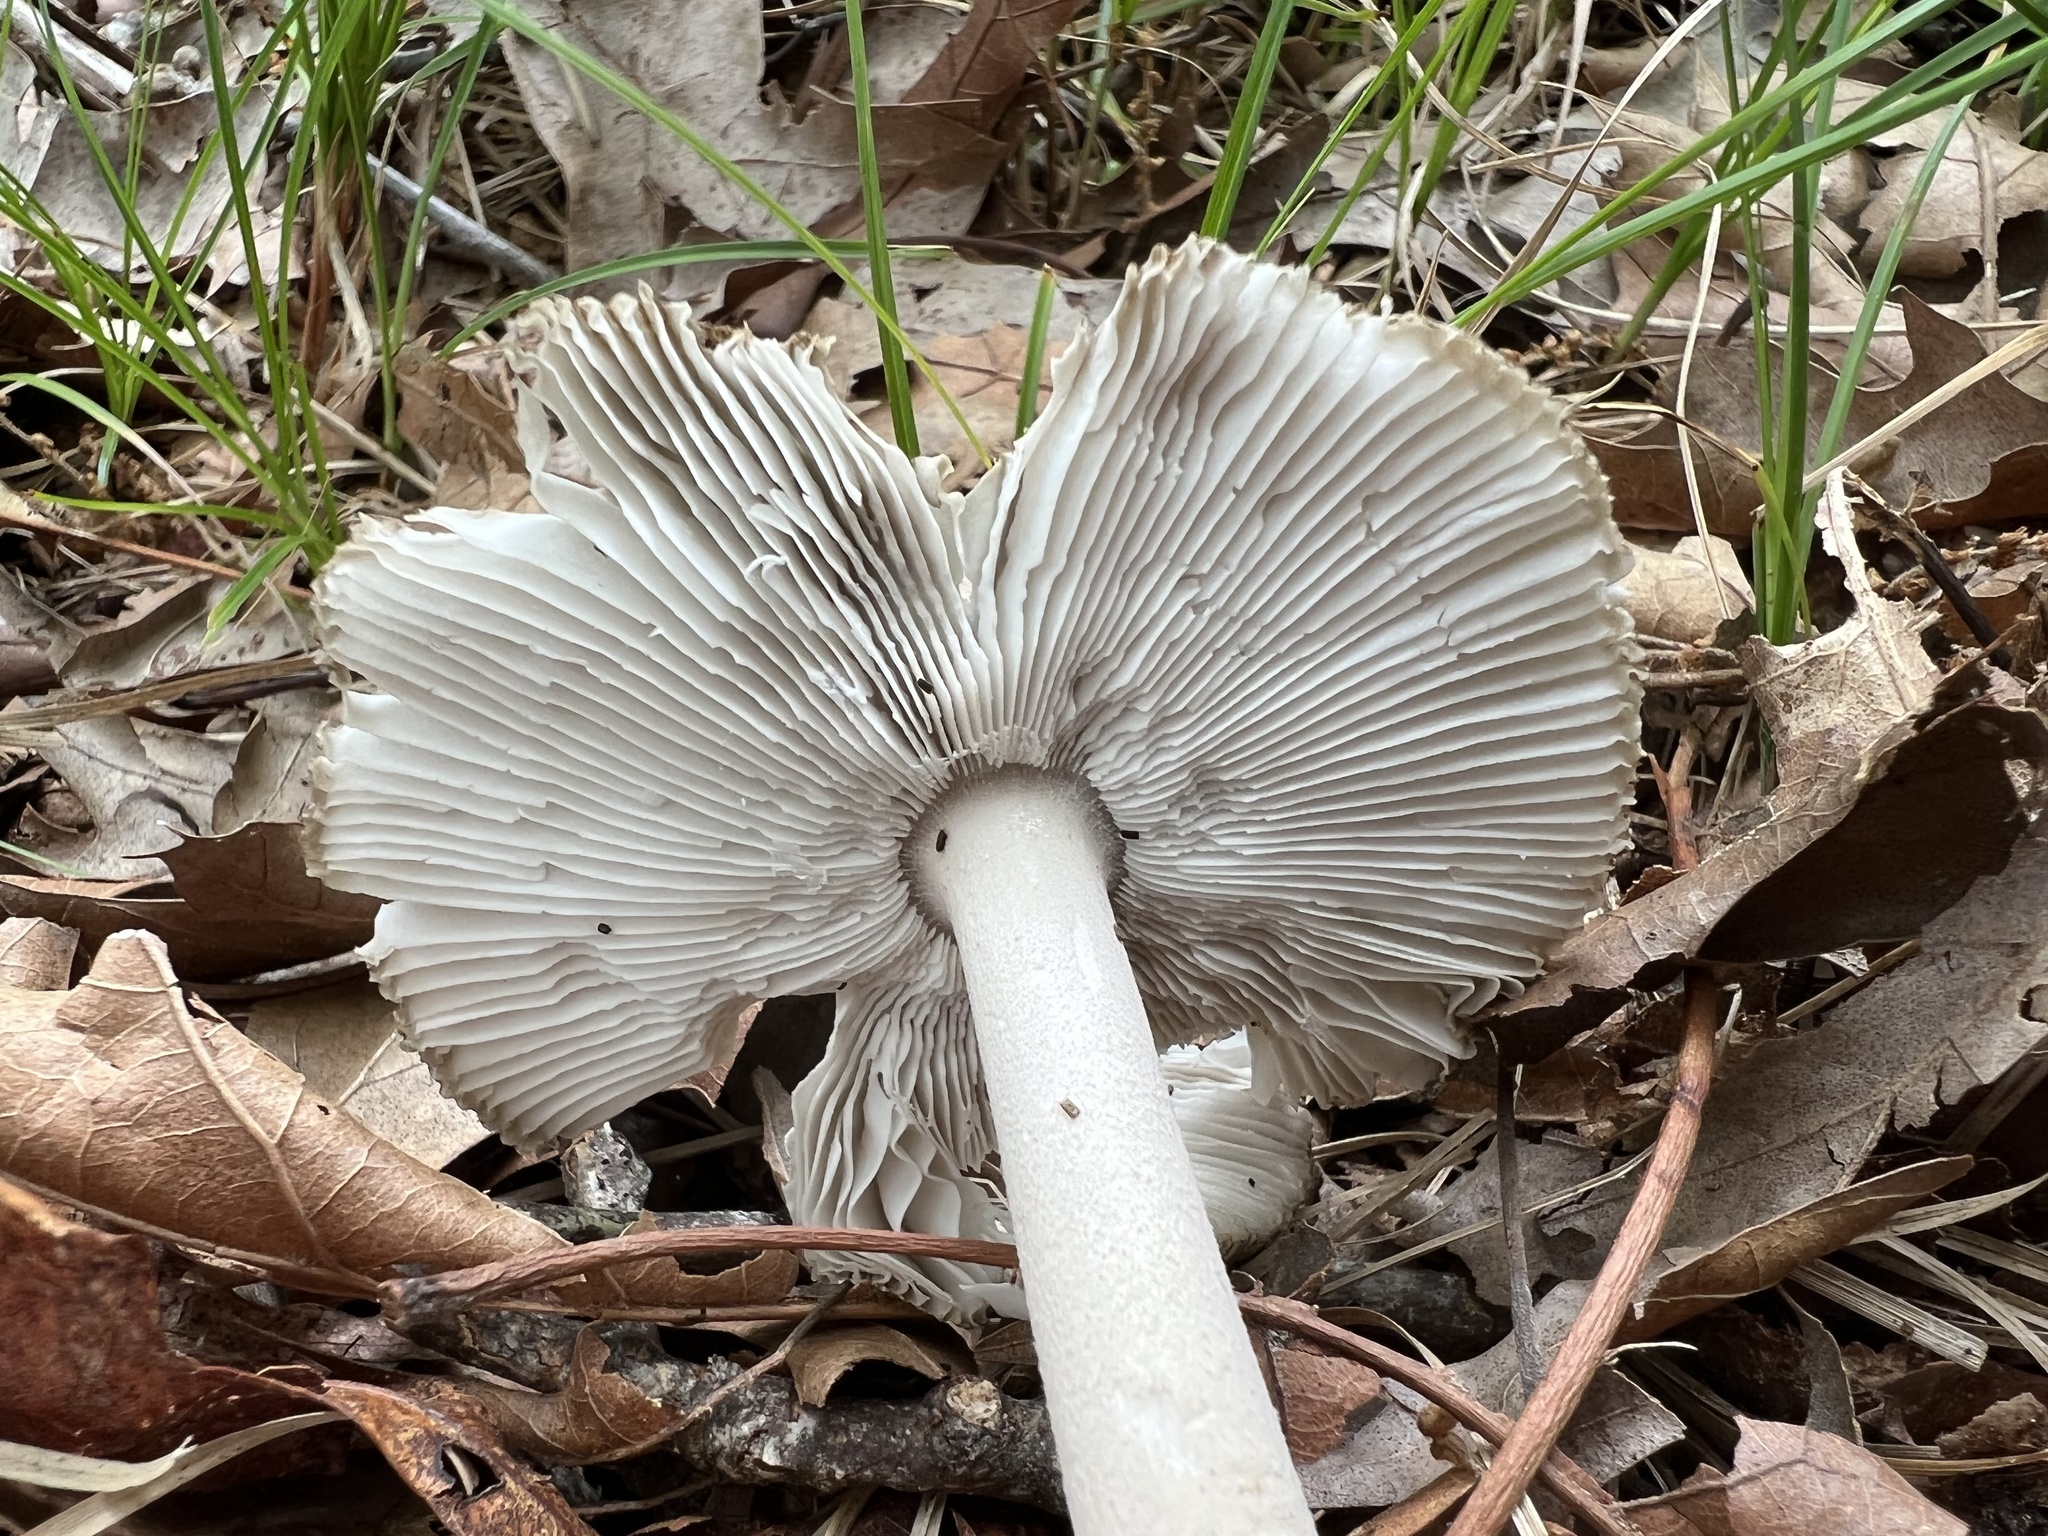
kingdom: Fungi
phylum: Basidiomycota
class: Agaricomycetes
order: Agaricales
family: Amanitaceae
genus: Amanita
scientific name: Amanita
